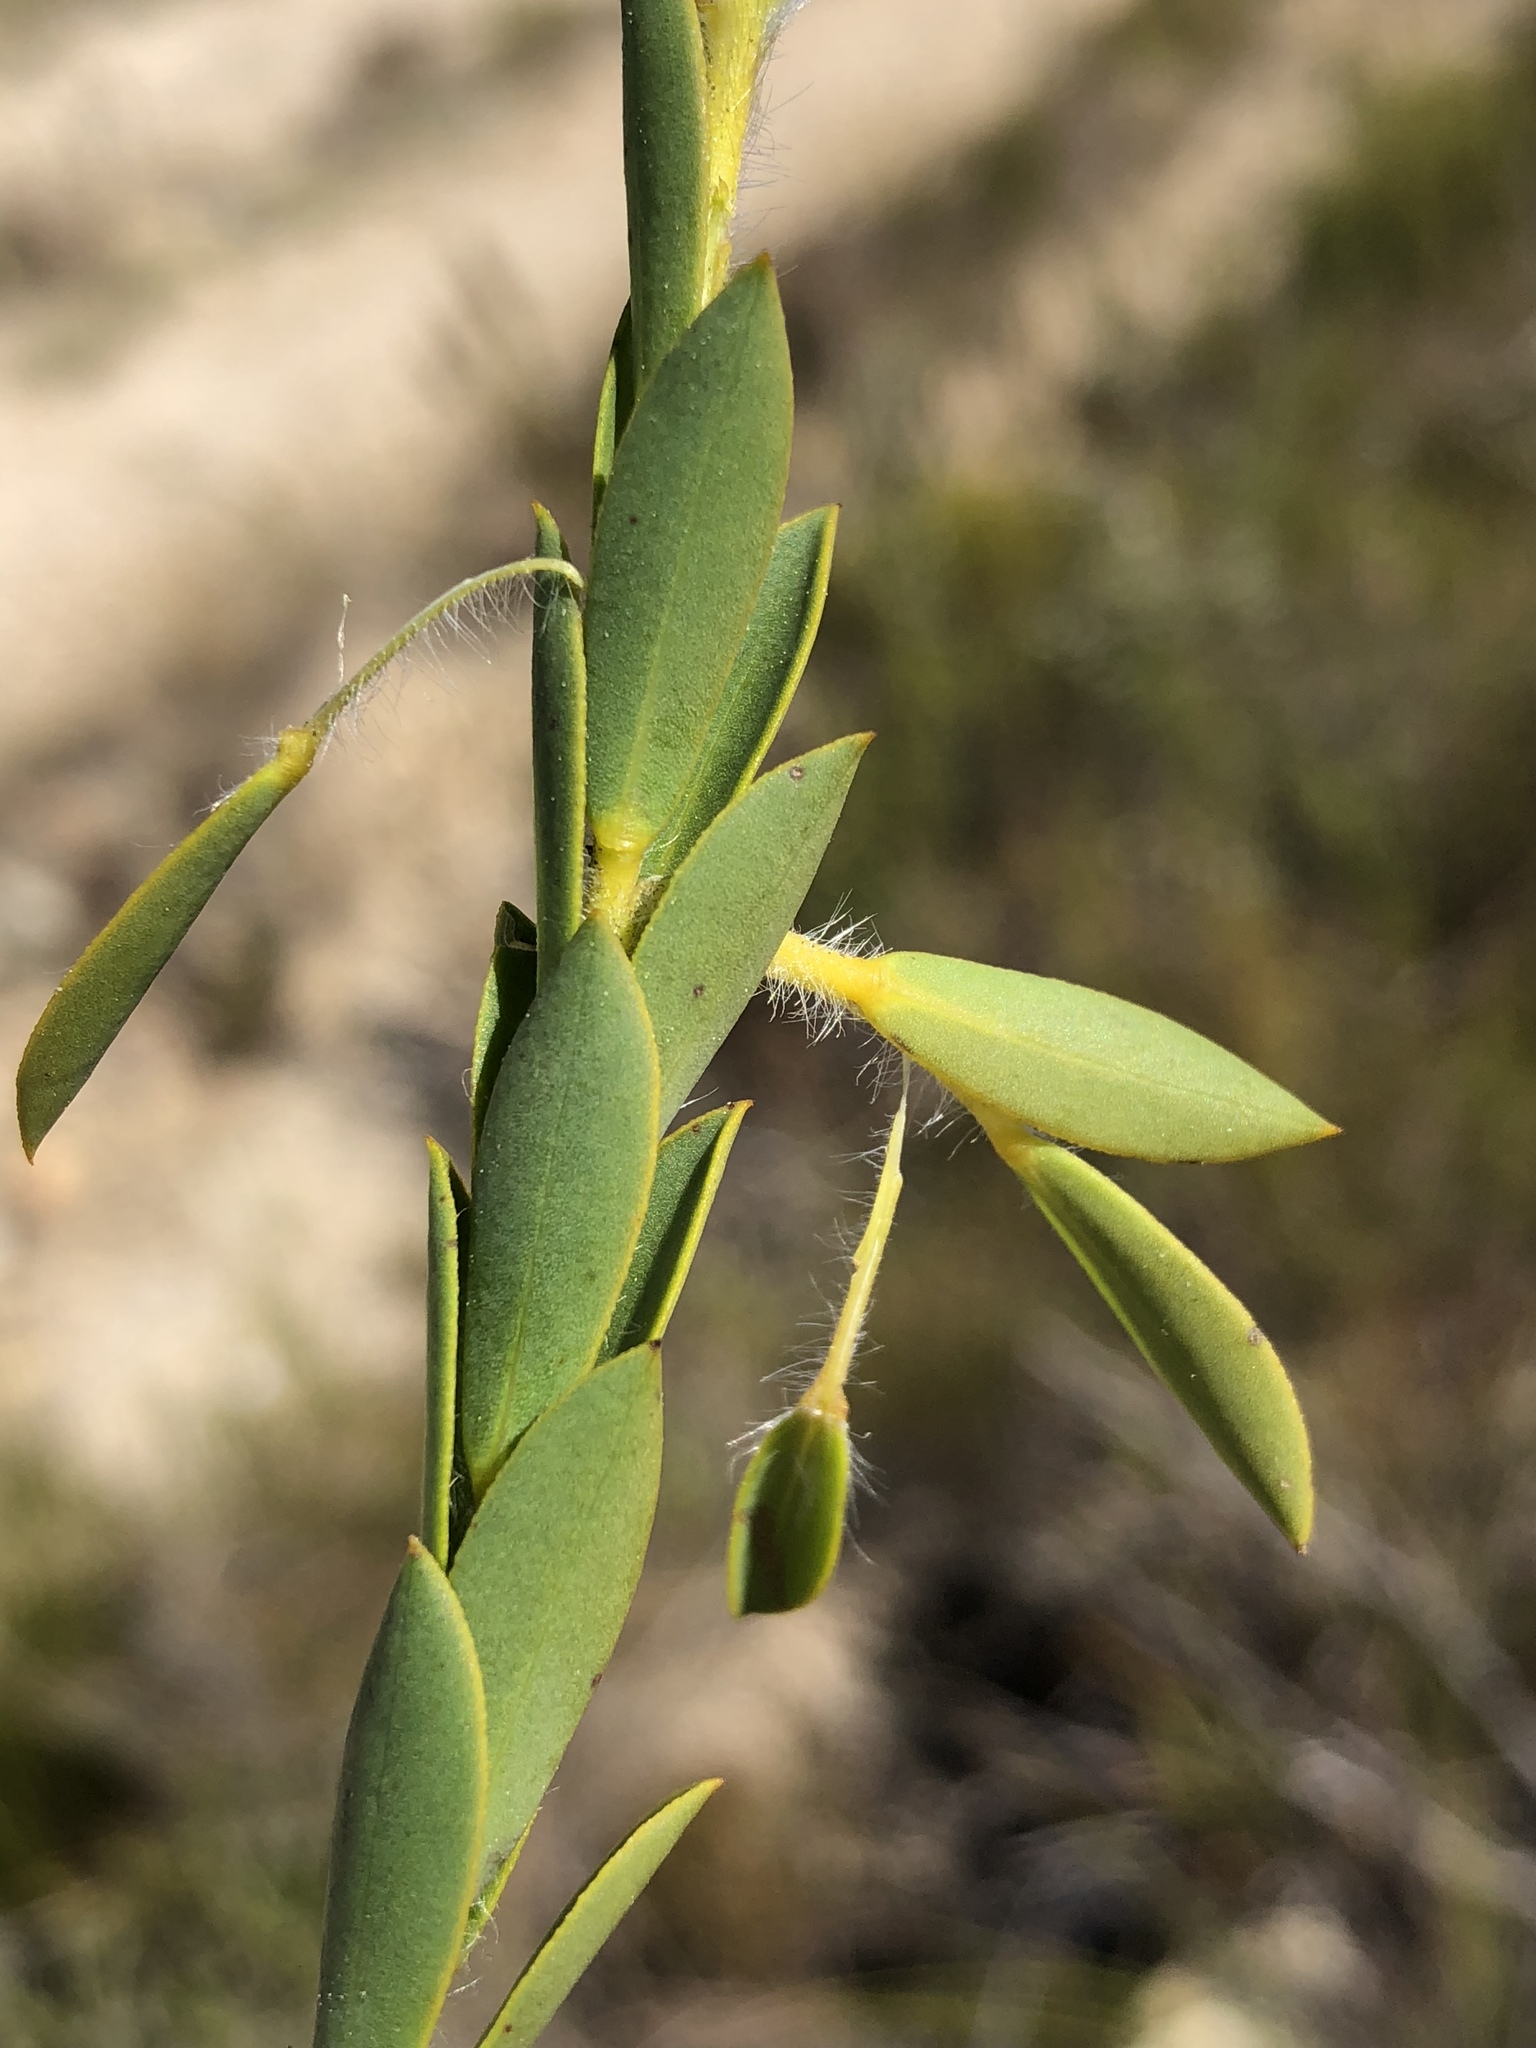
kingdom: Plantae
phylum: Tracheophyta
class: Magnoliopsida
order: Fabales
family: Fabaceae
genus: Liparia
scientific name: Liparia hirsuta
